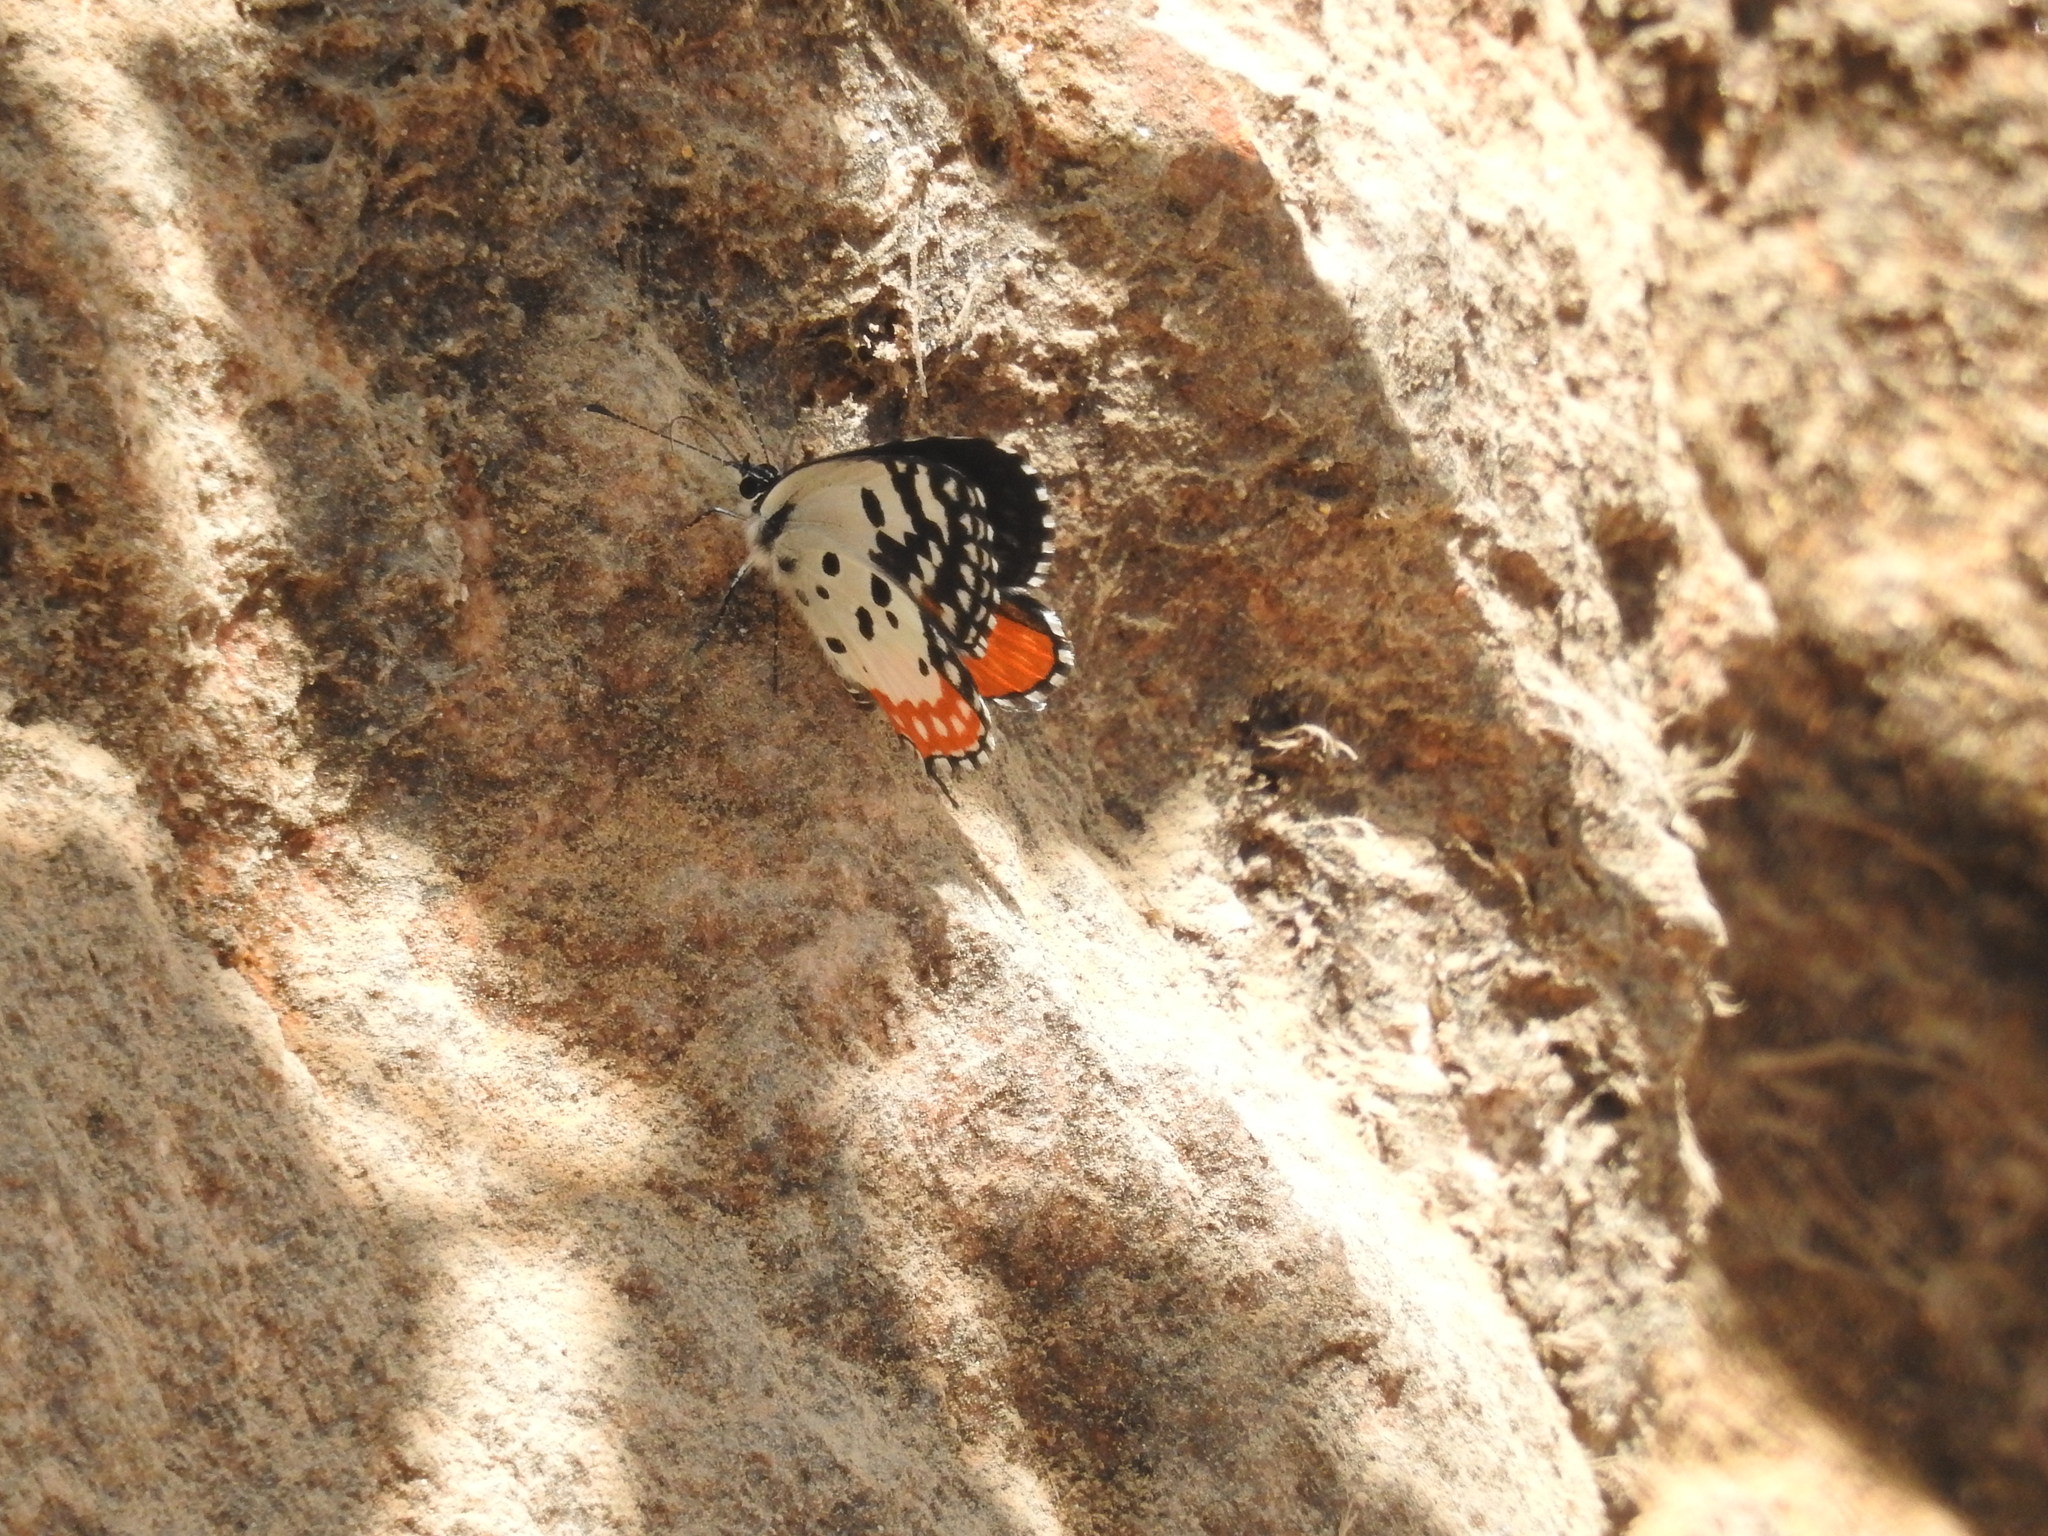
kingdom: Animalia
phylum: Arthropoda
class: Insecta
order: Lepidoptera
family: Lycaenidae
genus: Talicada
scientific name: Talicada nyseus
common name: Red pierrot
